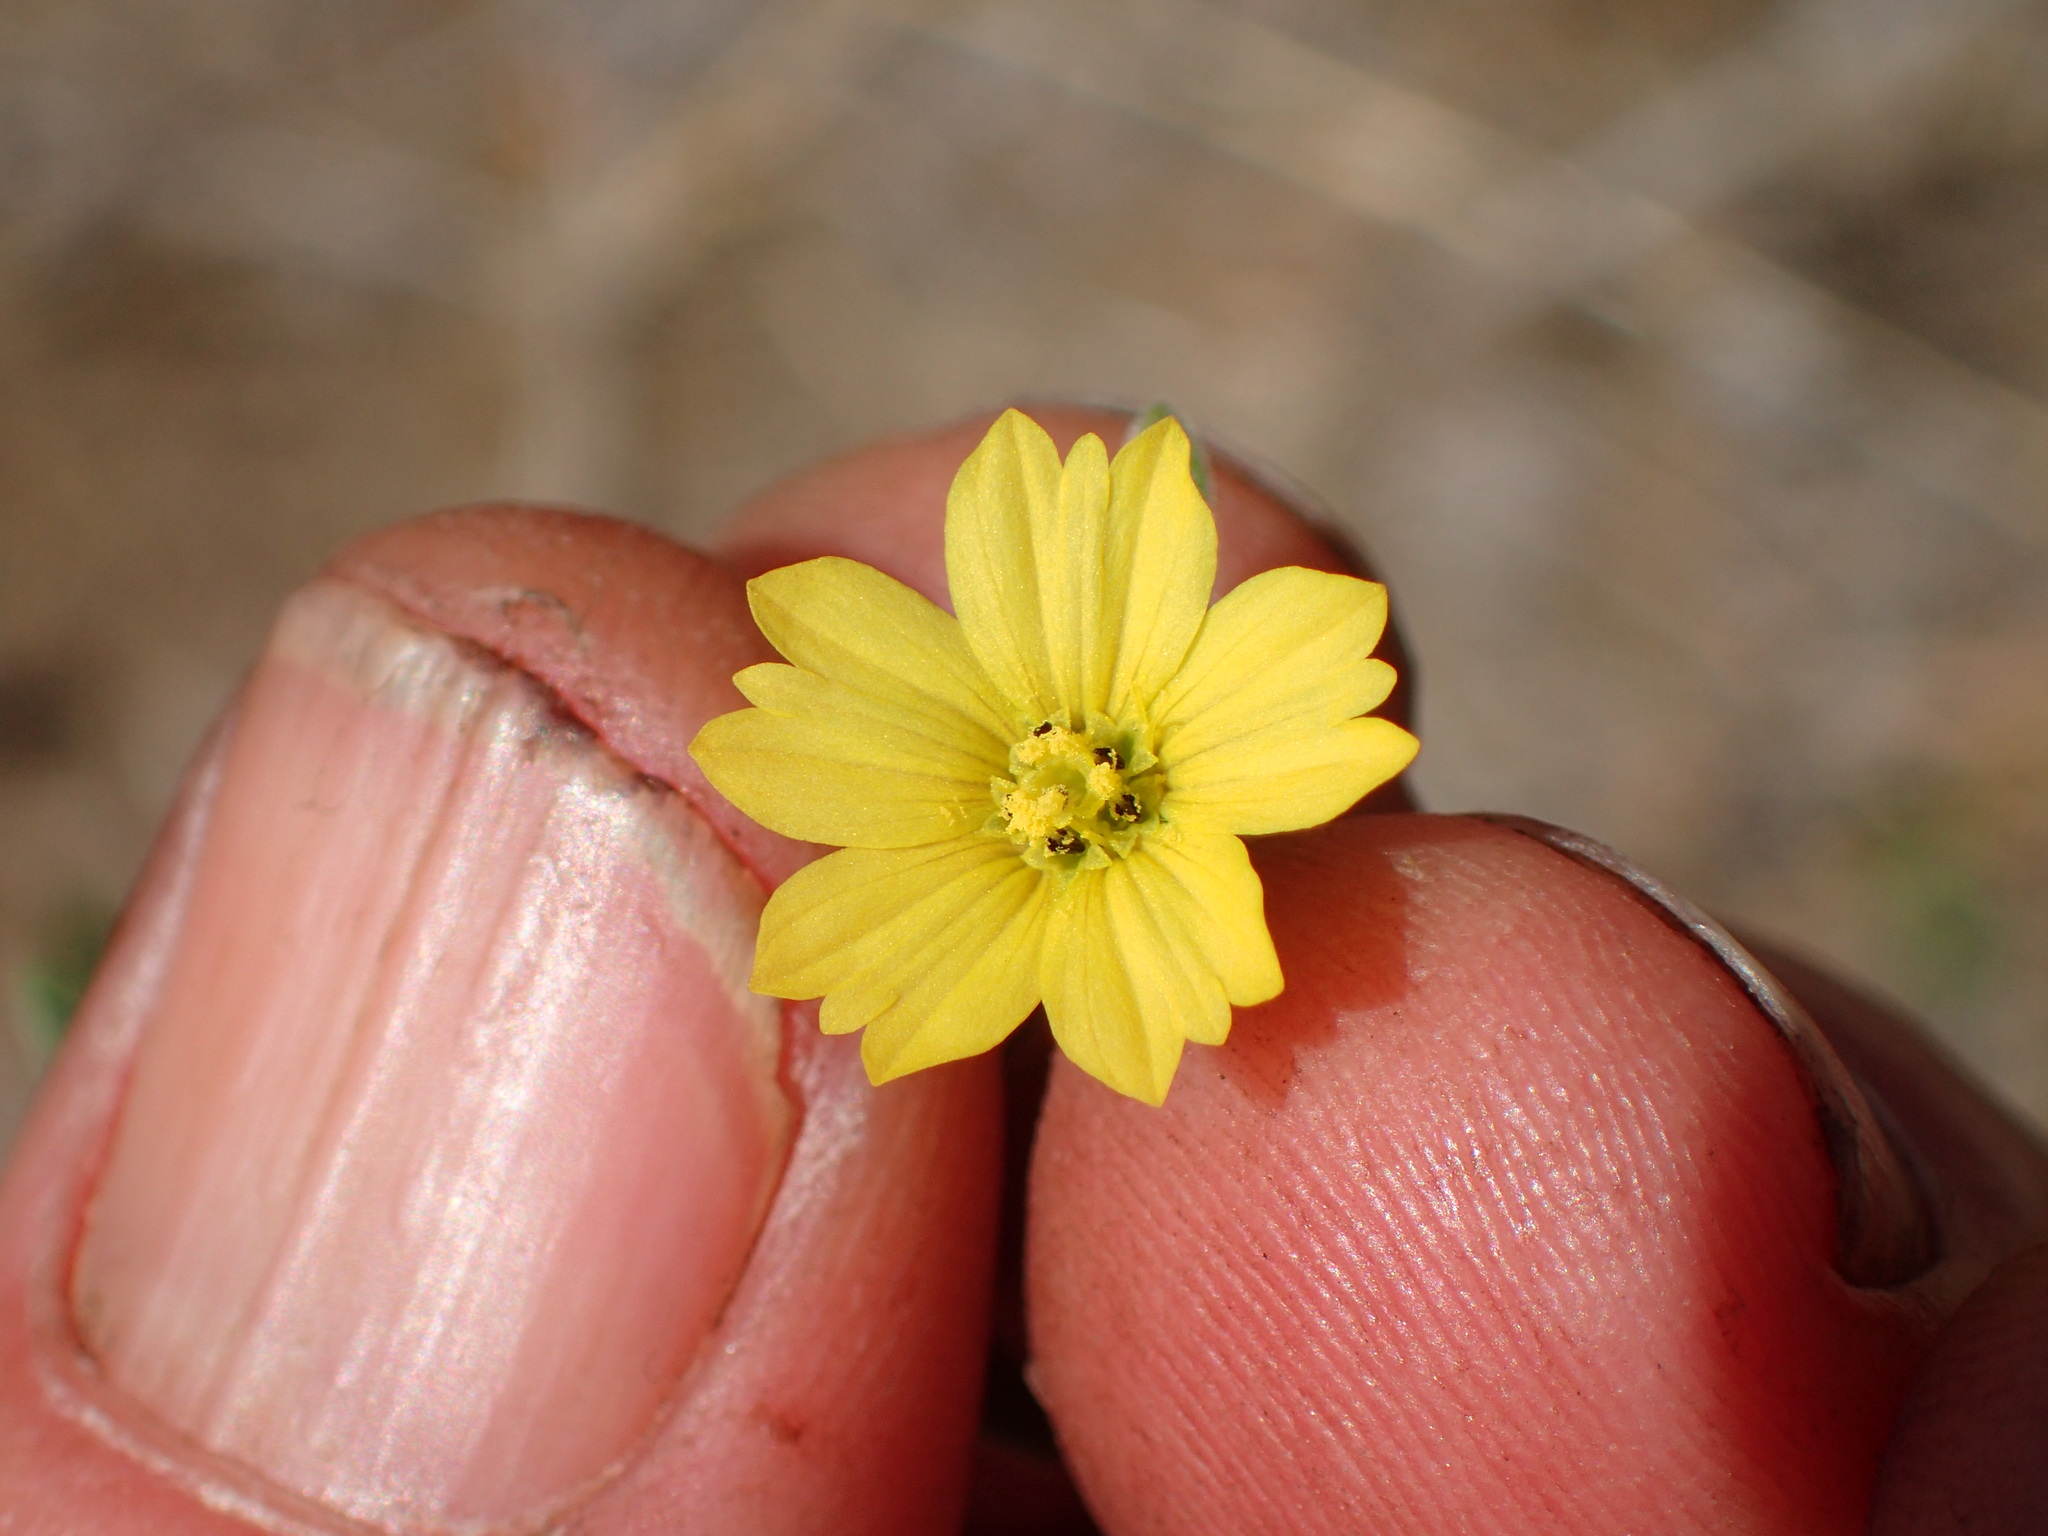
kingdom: Plantae
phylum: Tracheophyta
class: Magnoliopsida
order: Asterales
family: Asteraceae
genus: Lagophylla
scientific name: Lagophylla ramosissima
